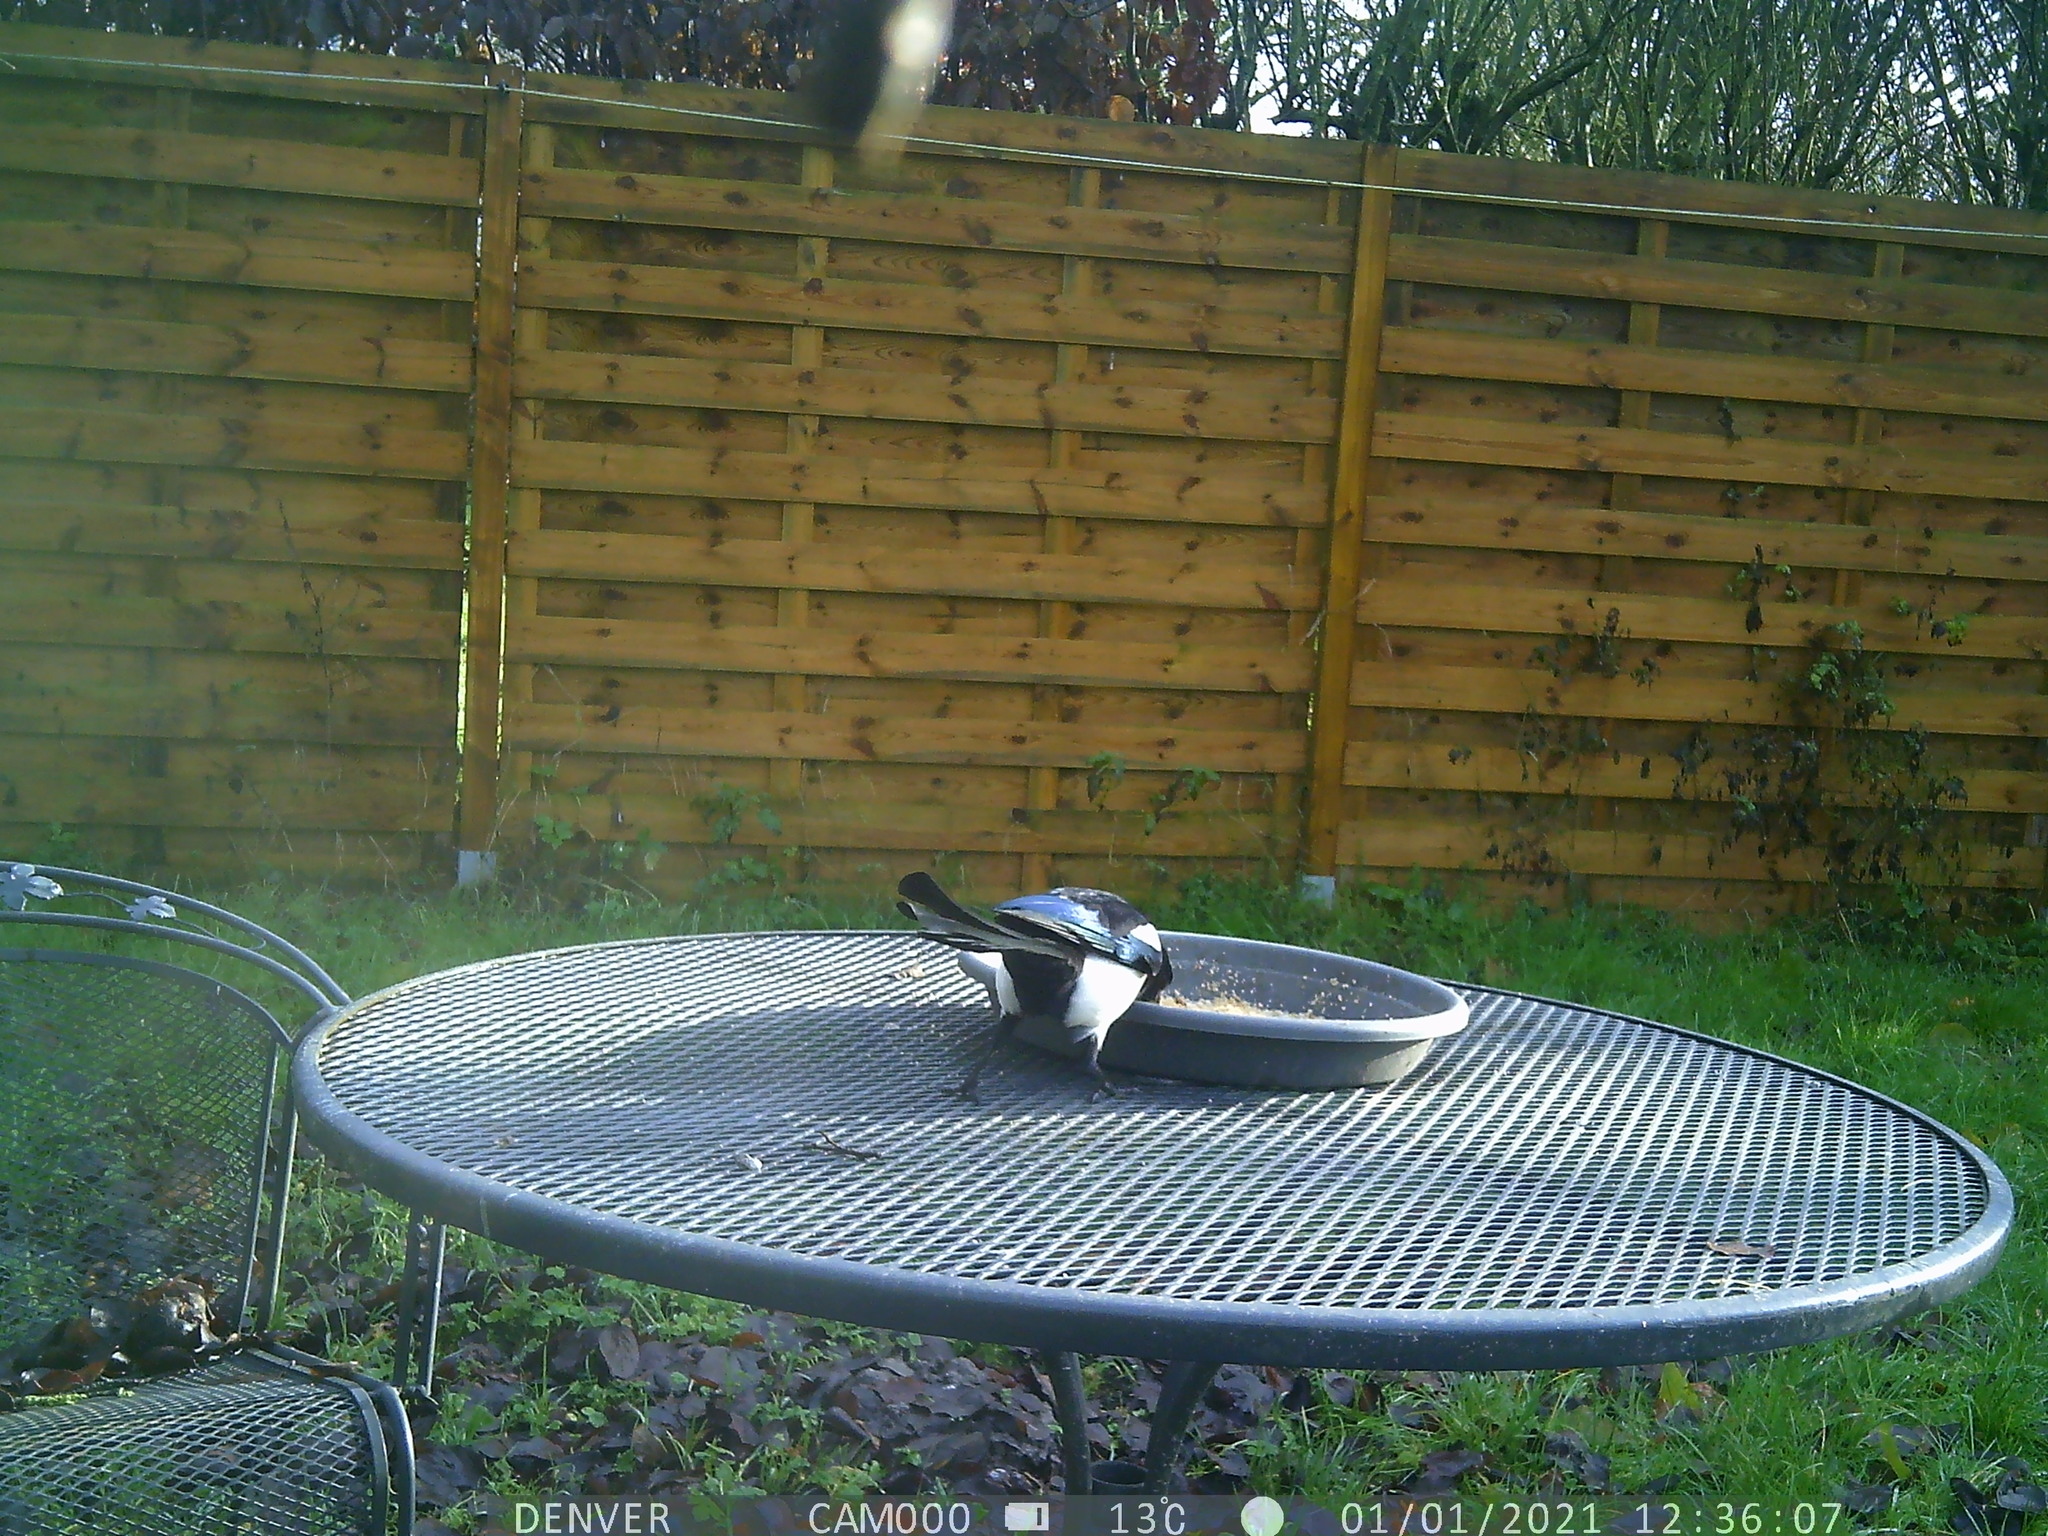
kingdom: Animalia
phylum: Chordata
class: Aves
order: Passeriformes
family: Corvidae
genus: Pica
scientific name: Pica pica
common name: Eurasian magpie
